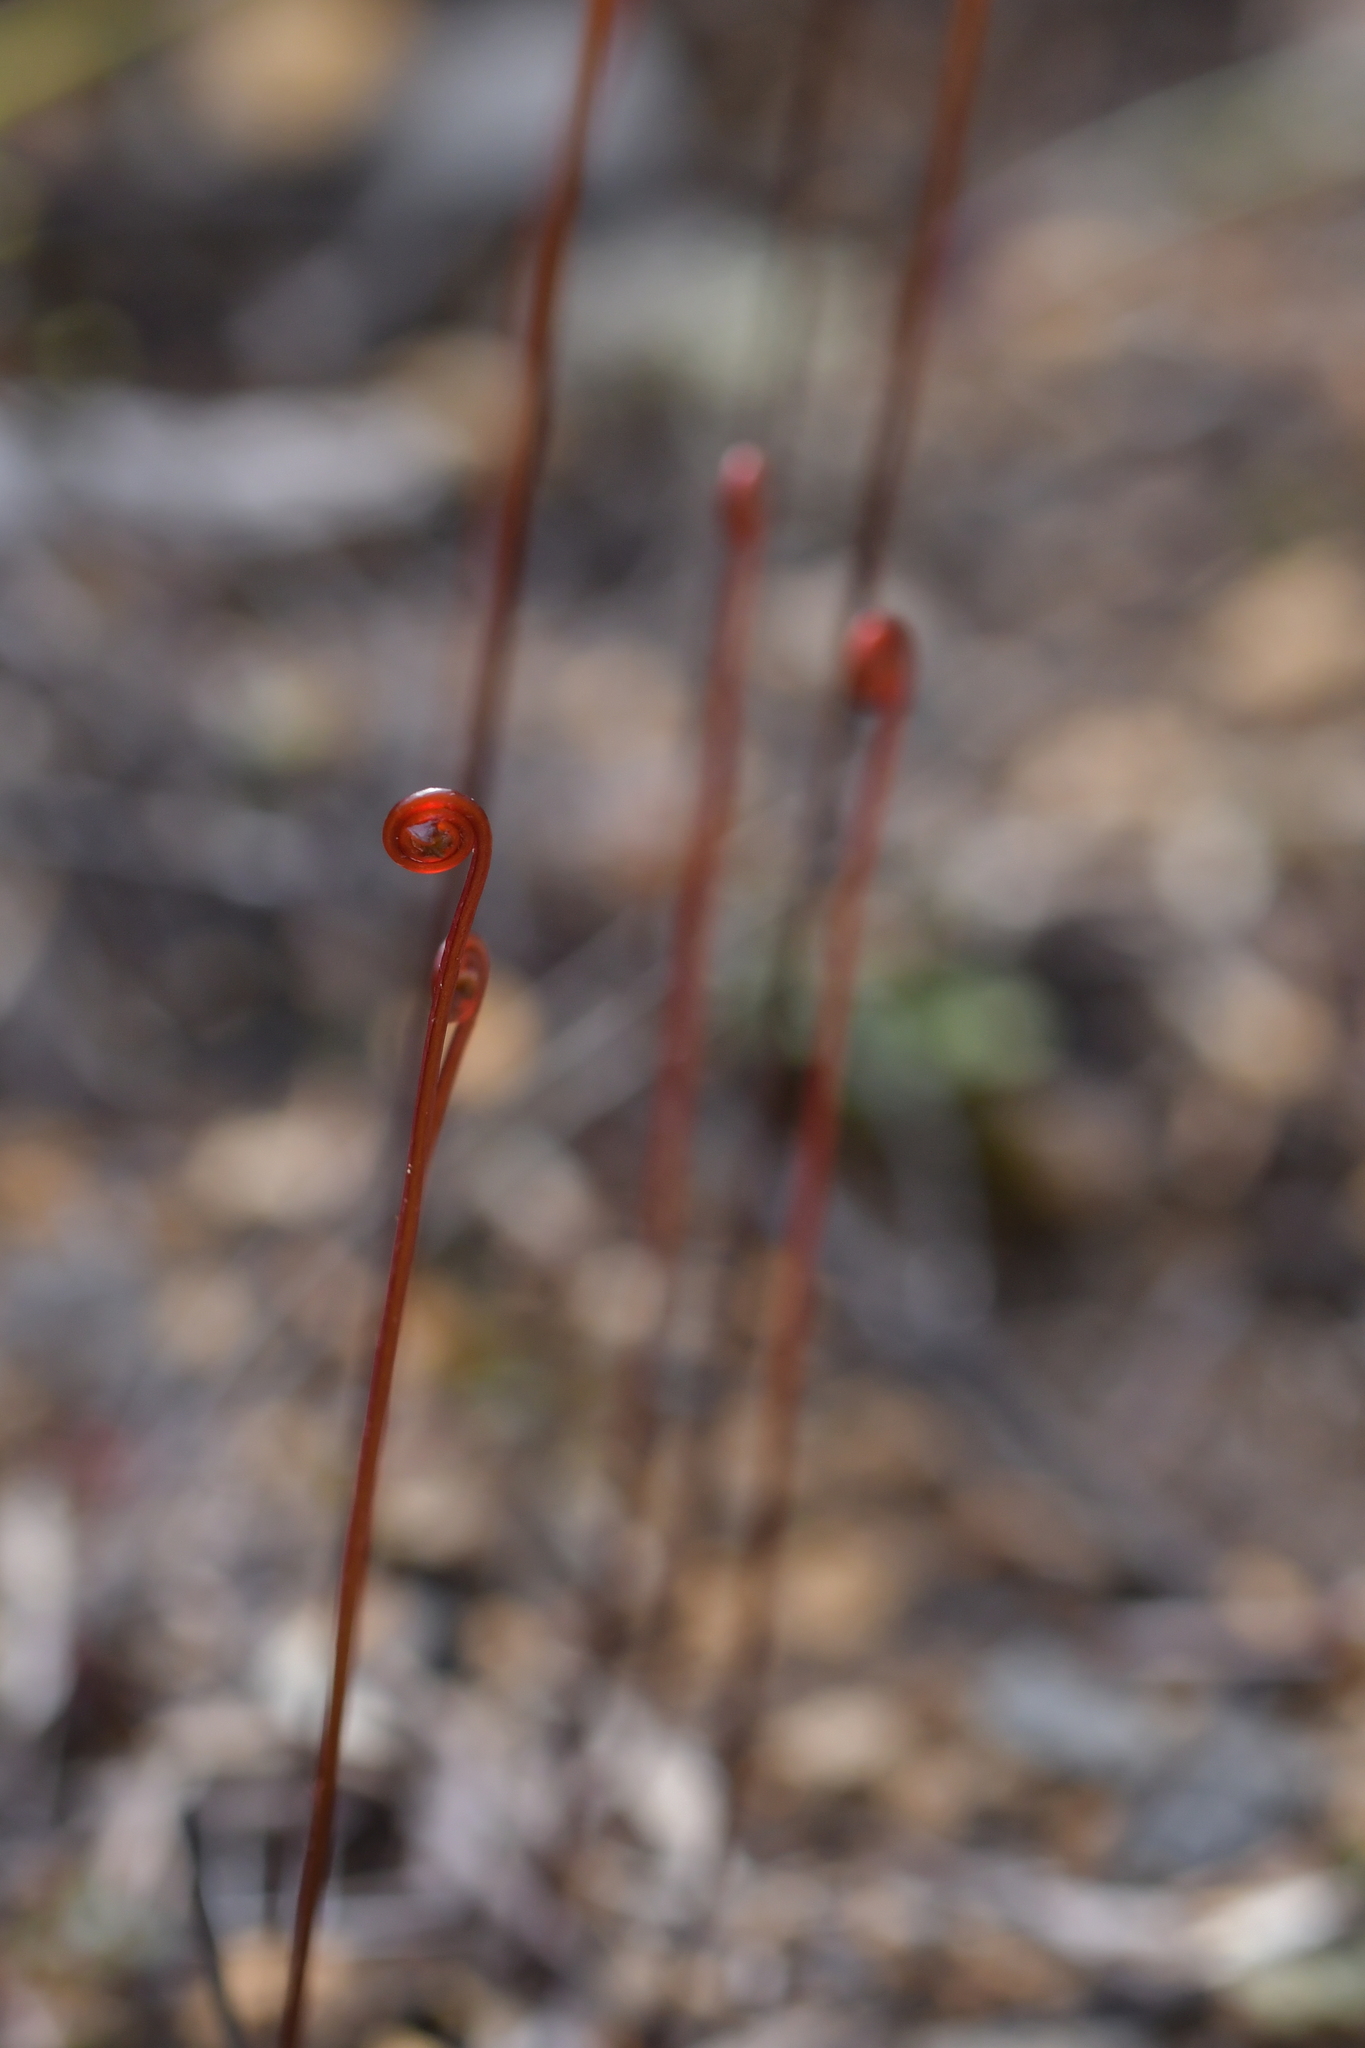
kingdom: Plantae
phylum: Tracheophyta
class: Polypodiopsida
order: Polypodiales
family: Lindsaeaceae
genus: Lindsaea
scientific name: Lindsaea linearis
